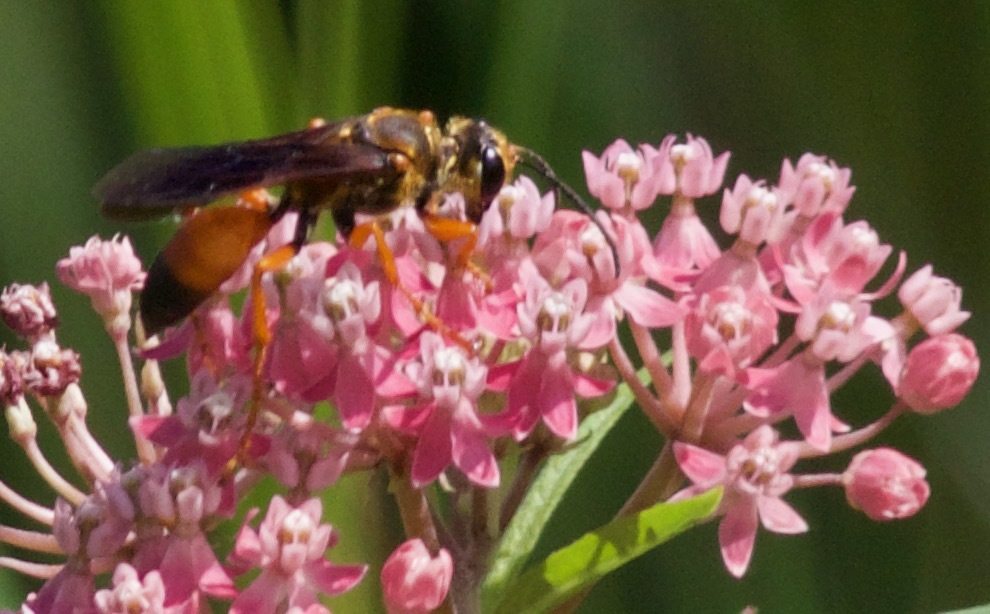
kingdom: Animalia
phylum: Arthropoda
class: Insecta
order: Hymenoptera
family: Sphecidae
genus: Sphex
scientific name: Sphex ichneumoneus
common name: Great golden digger wasp
